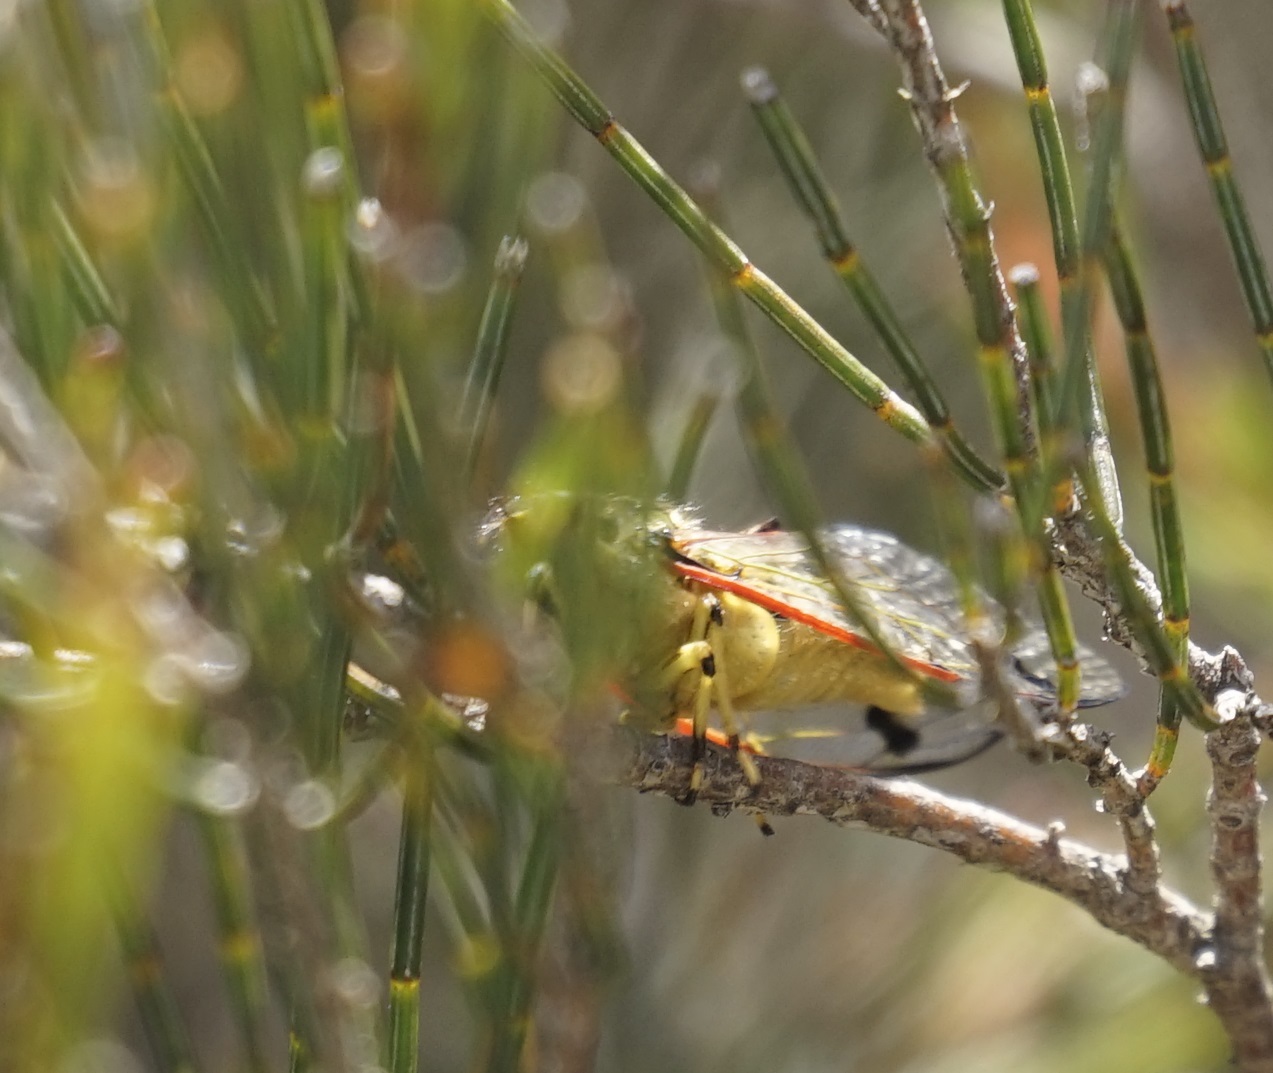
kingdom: Animalia
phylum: Arthropoda
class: Insecta
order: Hemiptera
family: Cicadidae
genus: Diemeniana
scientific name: Diemeniana euronotiana
